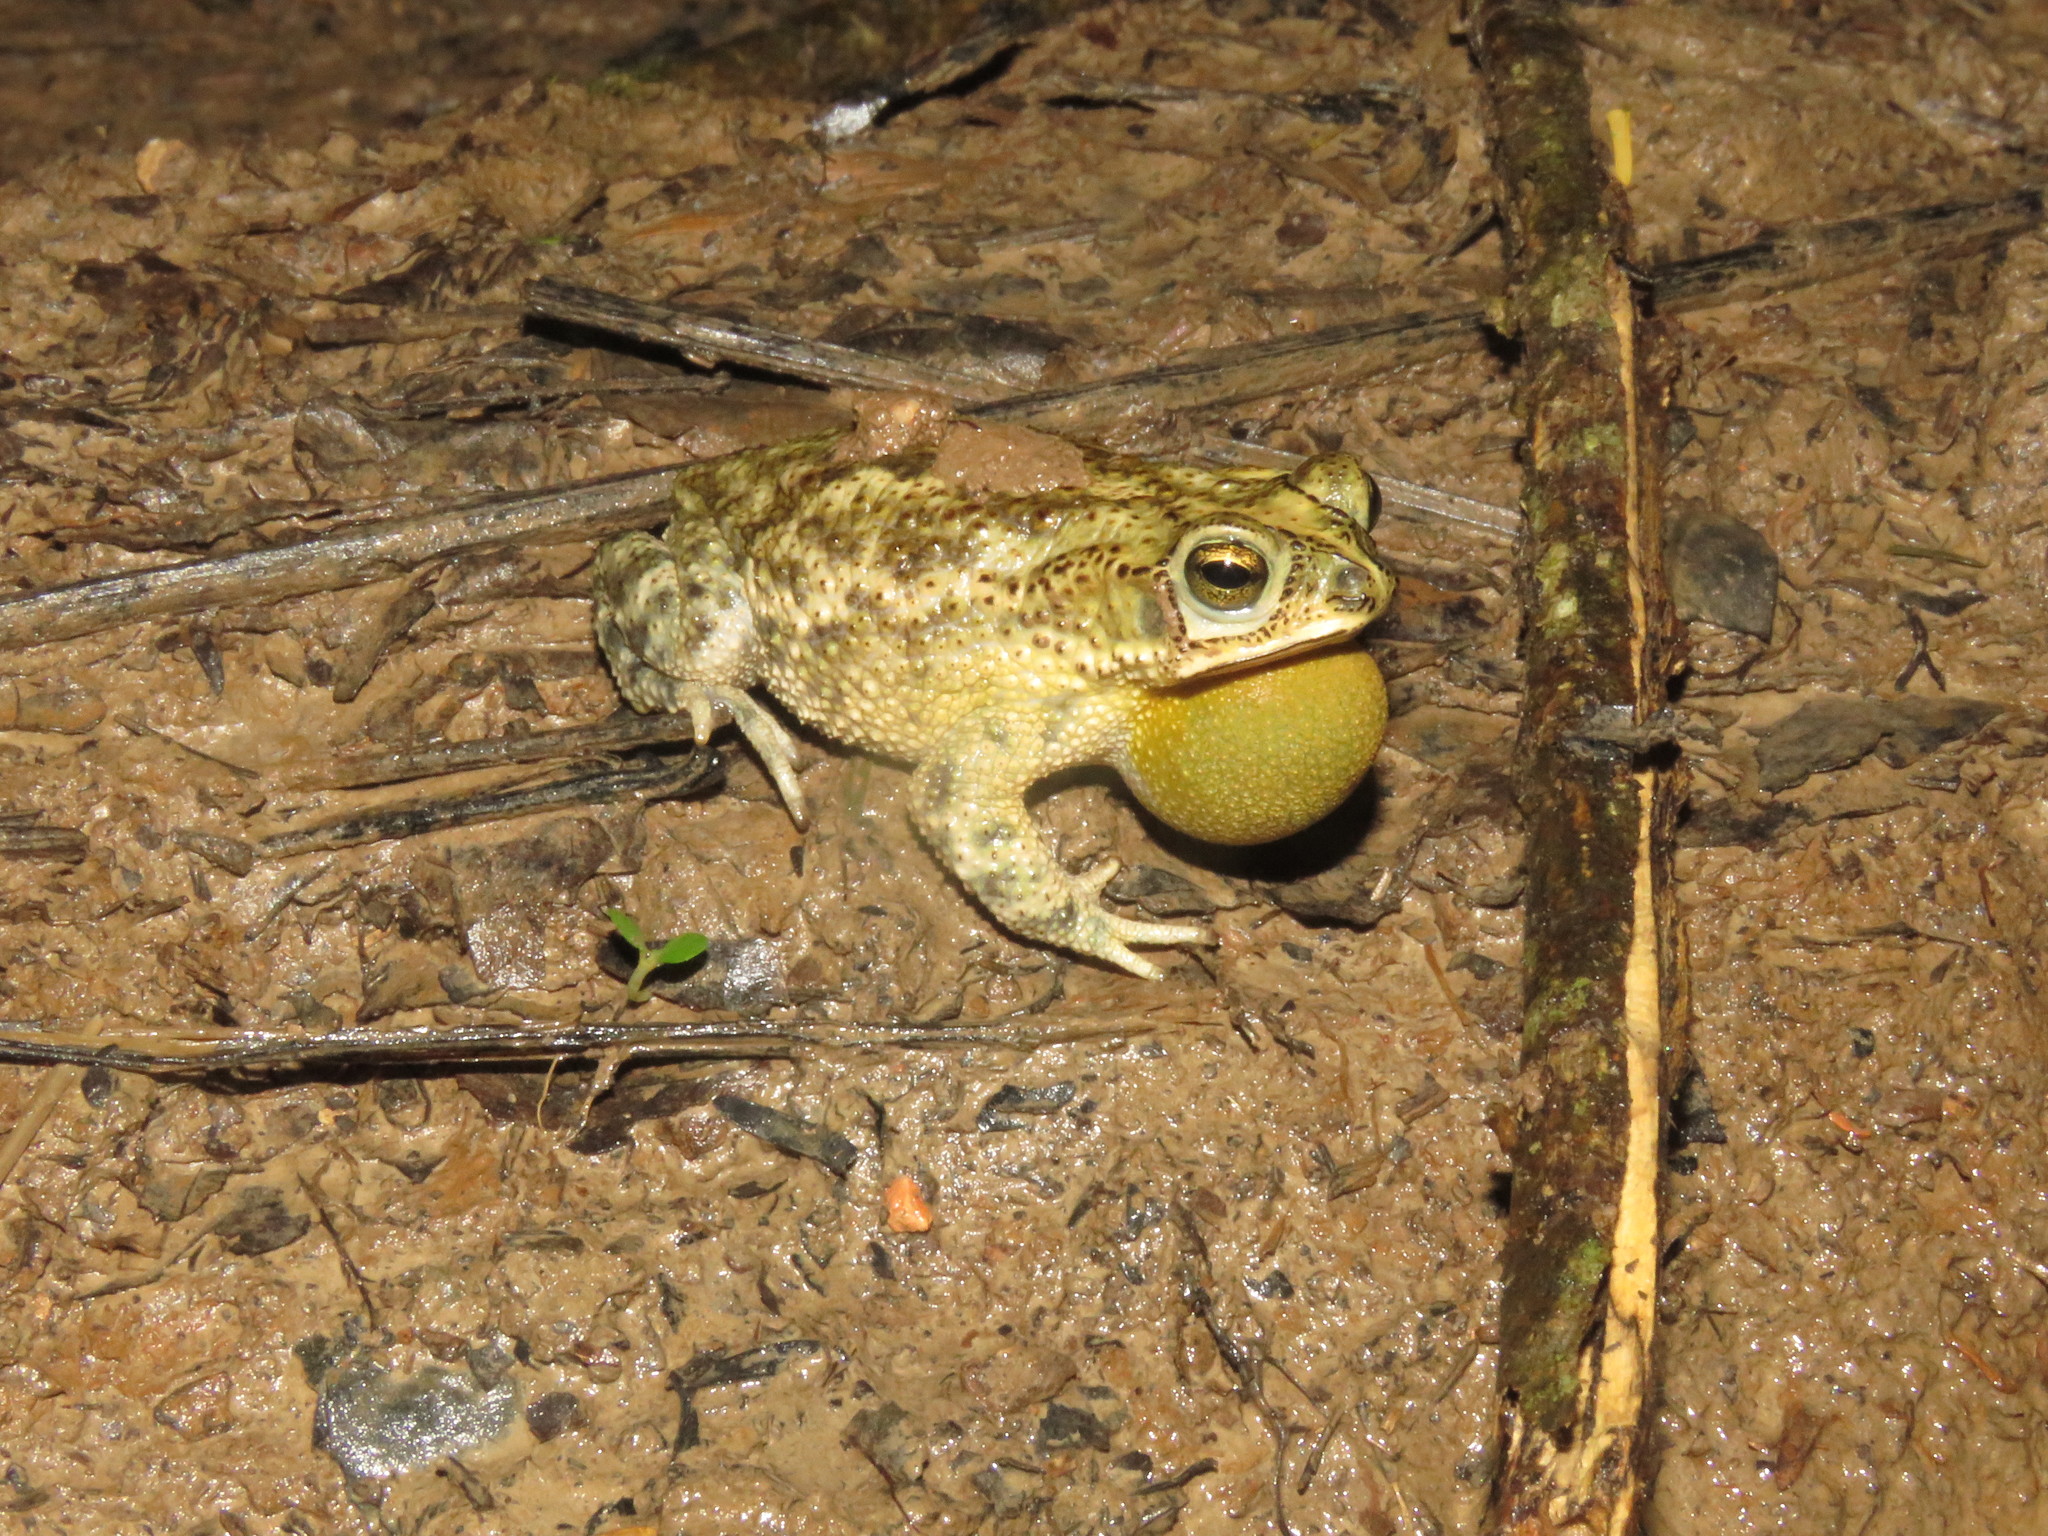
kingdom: Animalia
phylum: Chordata
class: Amphibia
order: Anura
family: Bufonidae
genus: Rhinella
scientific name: Rhinella major
